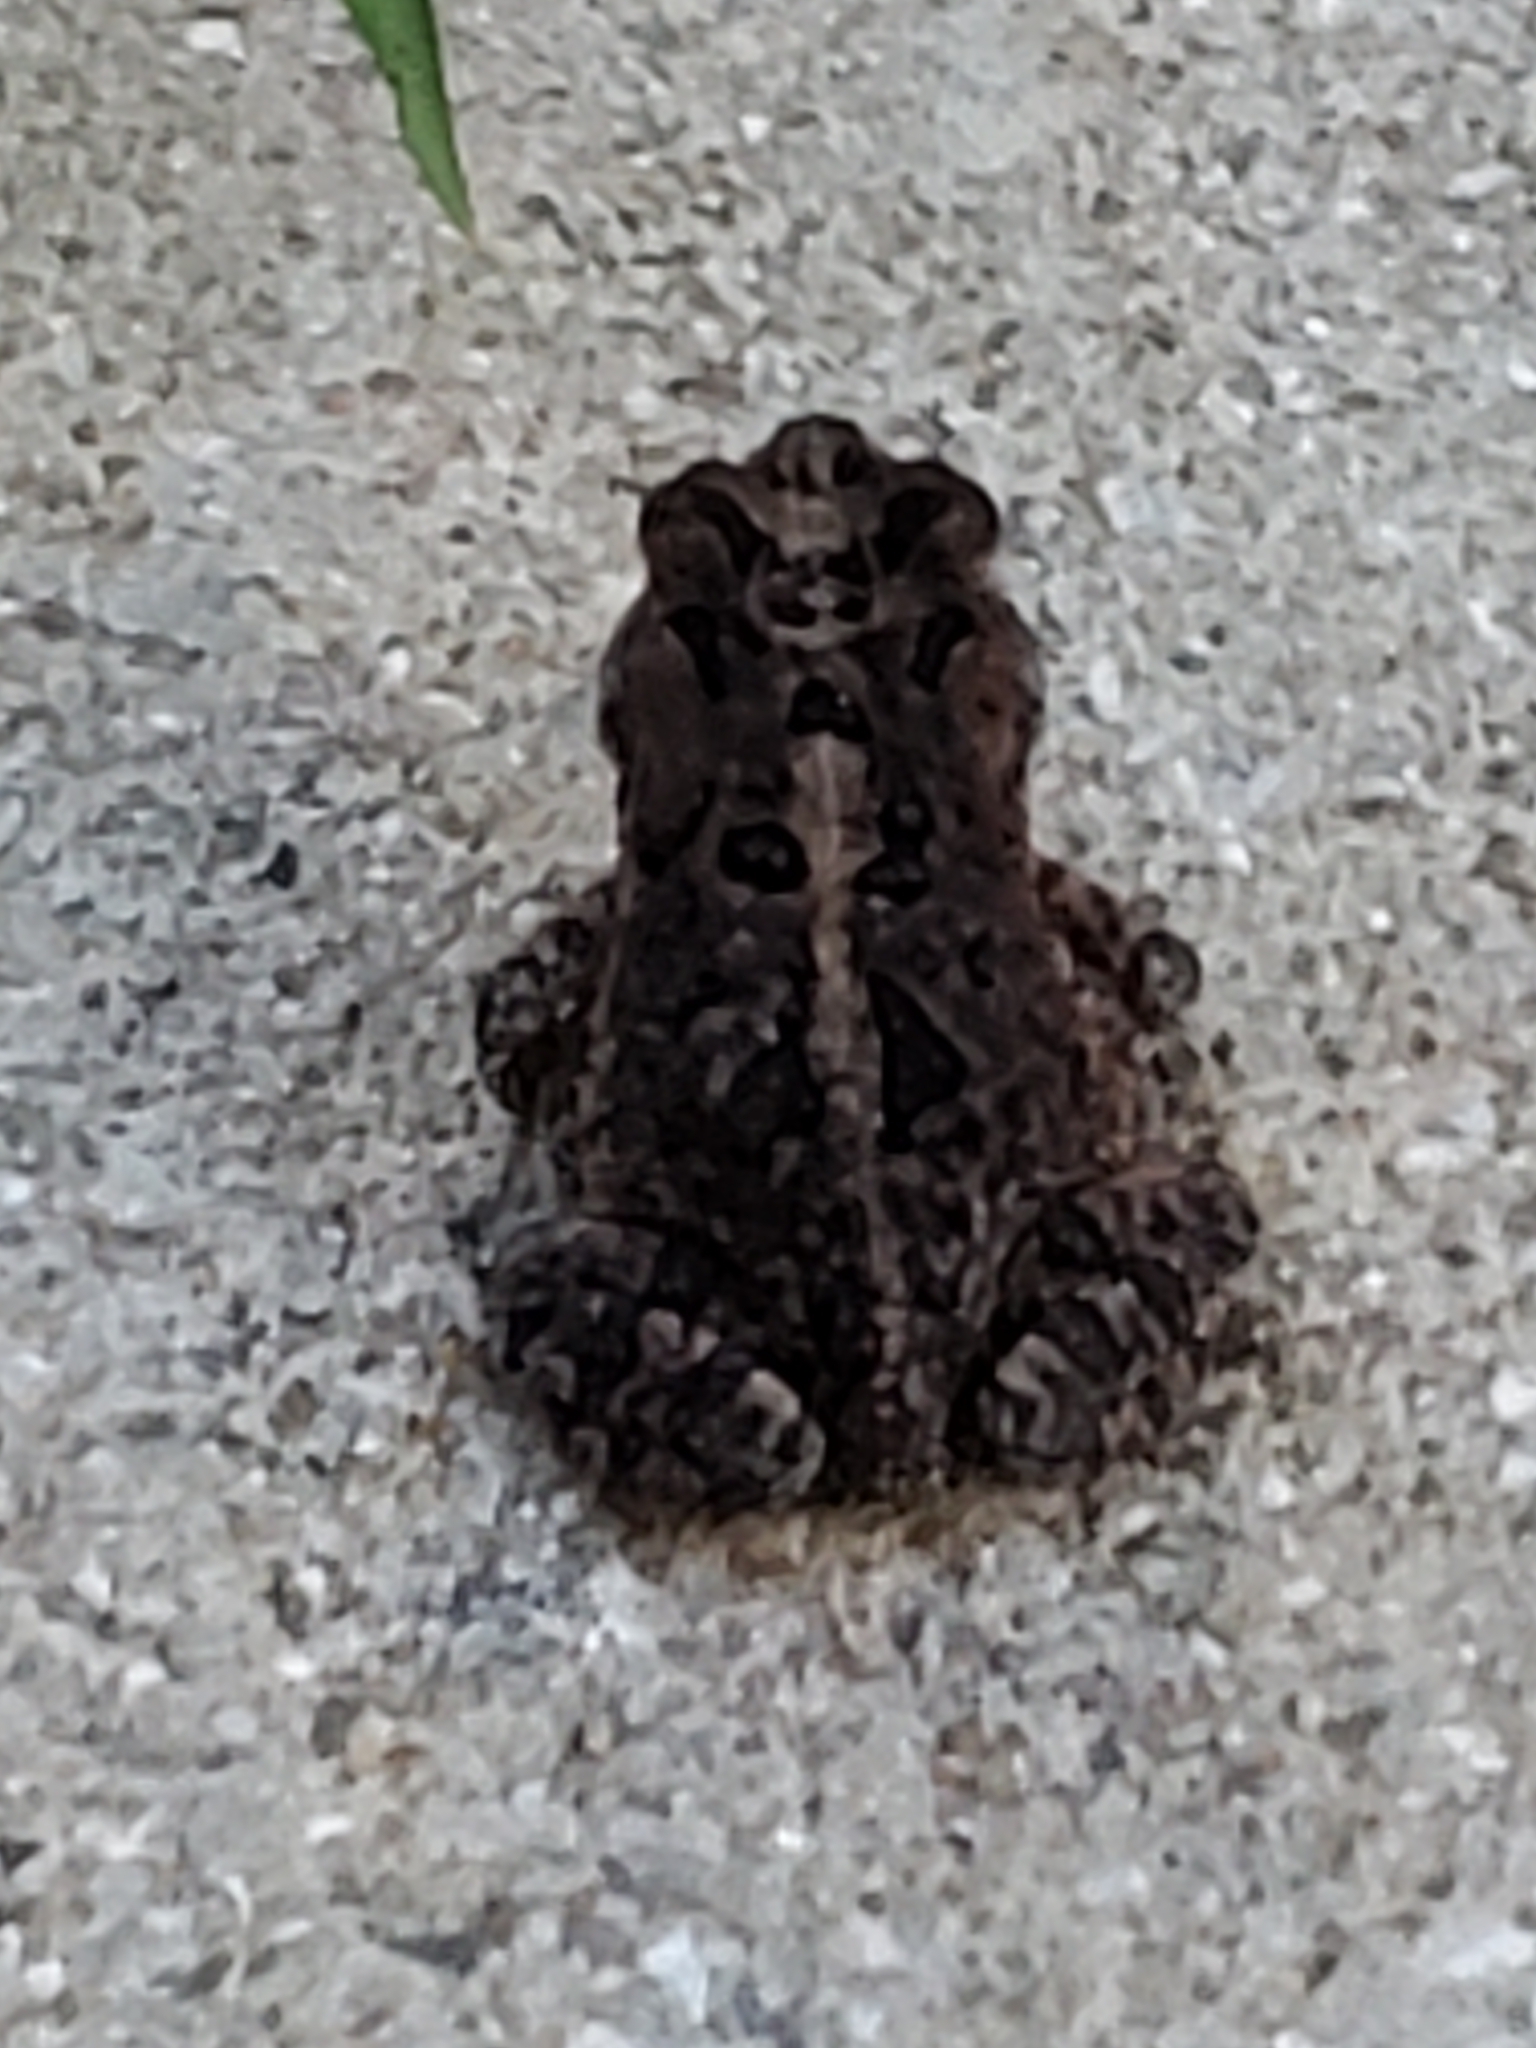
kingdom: Animalia
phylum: Chordata
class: Amphibia
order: Anura
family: Bufonidae
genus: Anaxyrus
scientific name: Anaxyrus terrestris
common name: Southern toad
